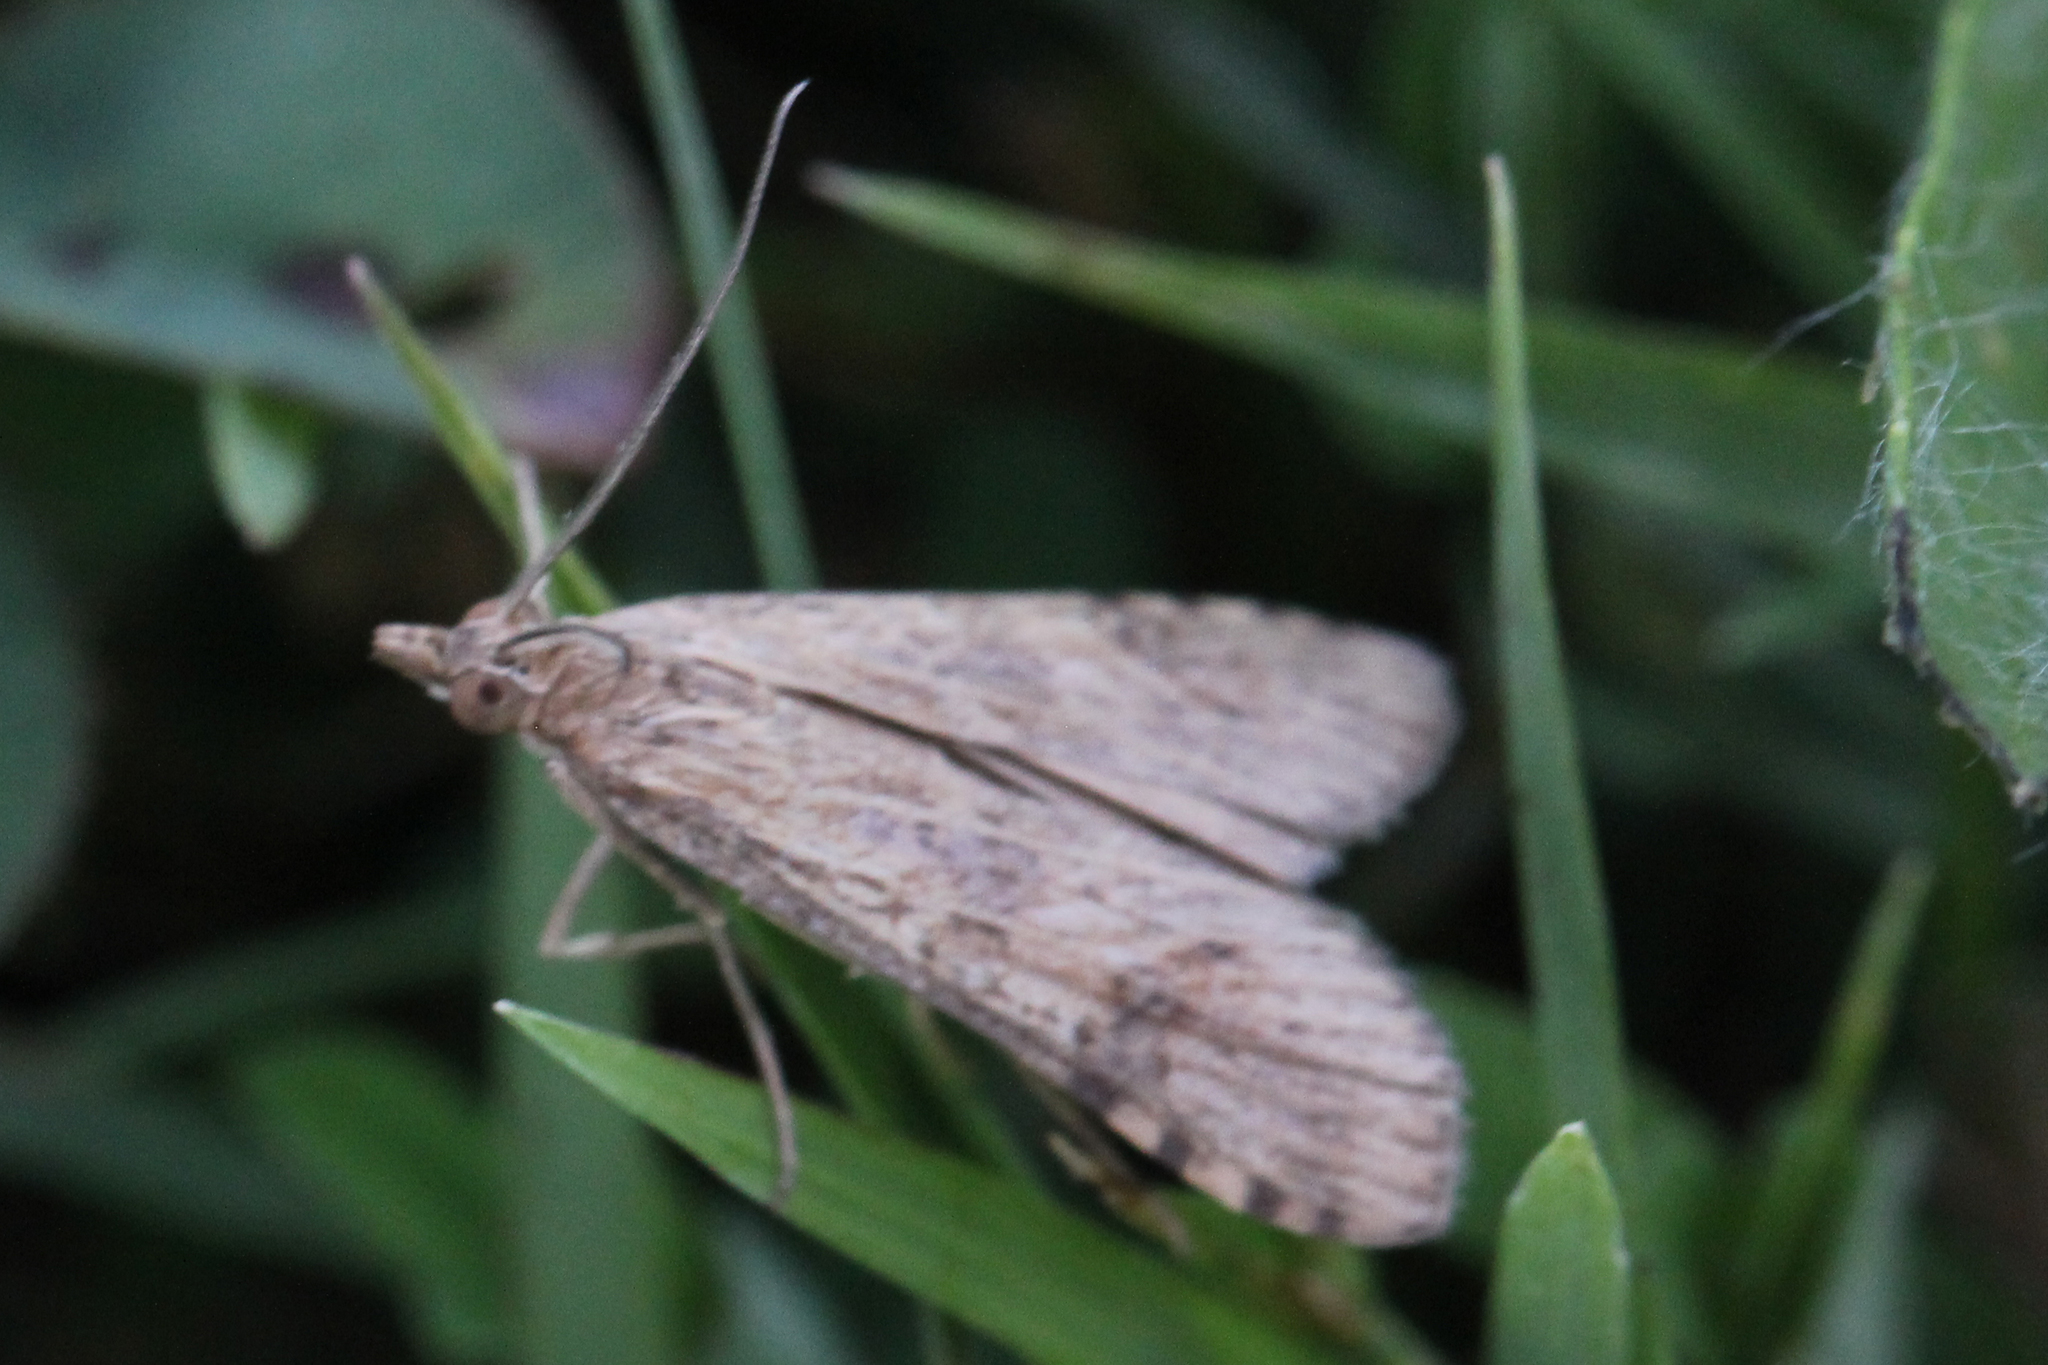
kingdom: Animalia
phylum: Arthropoda
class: Insecta
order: Lepidoptera
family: Crambidae
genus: Nomophila
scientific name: Nomophila nearctica
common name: American rush veneer
